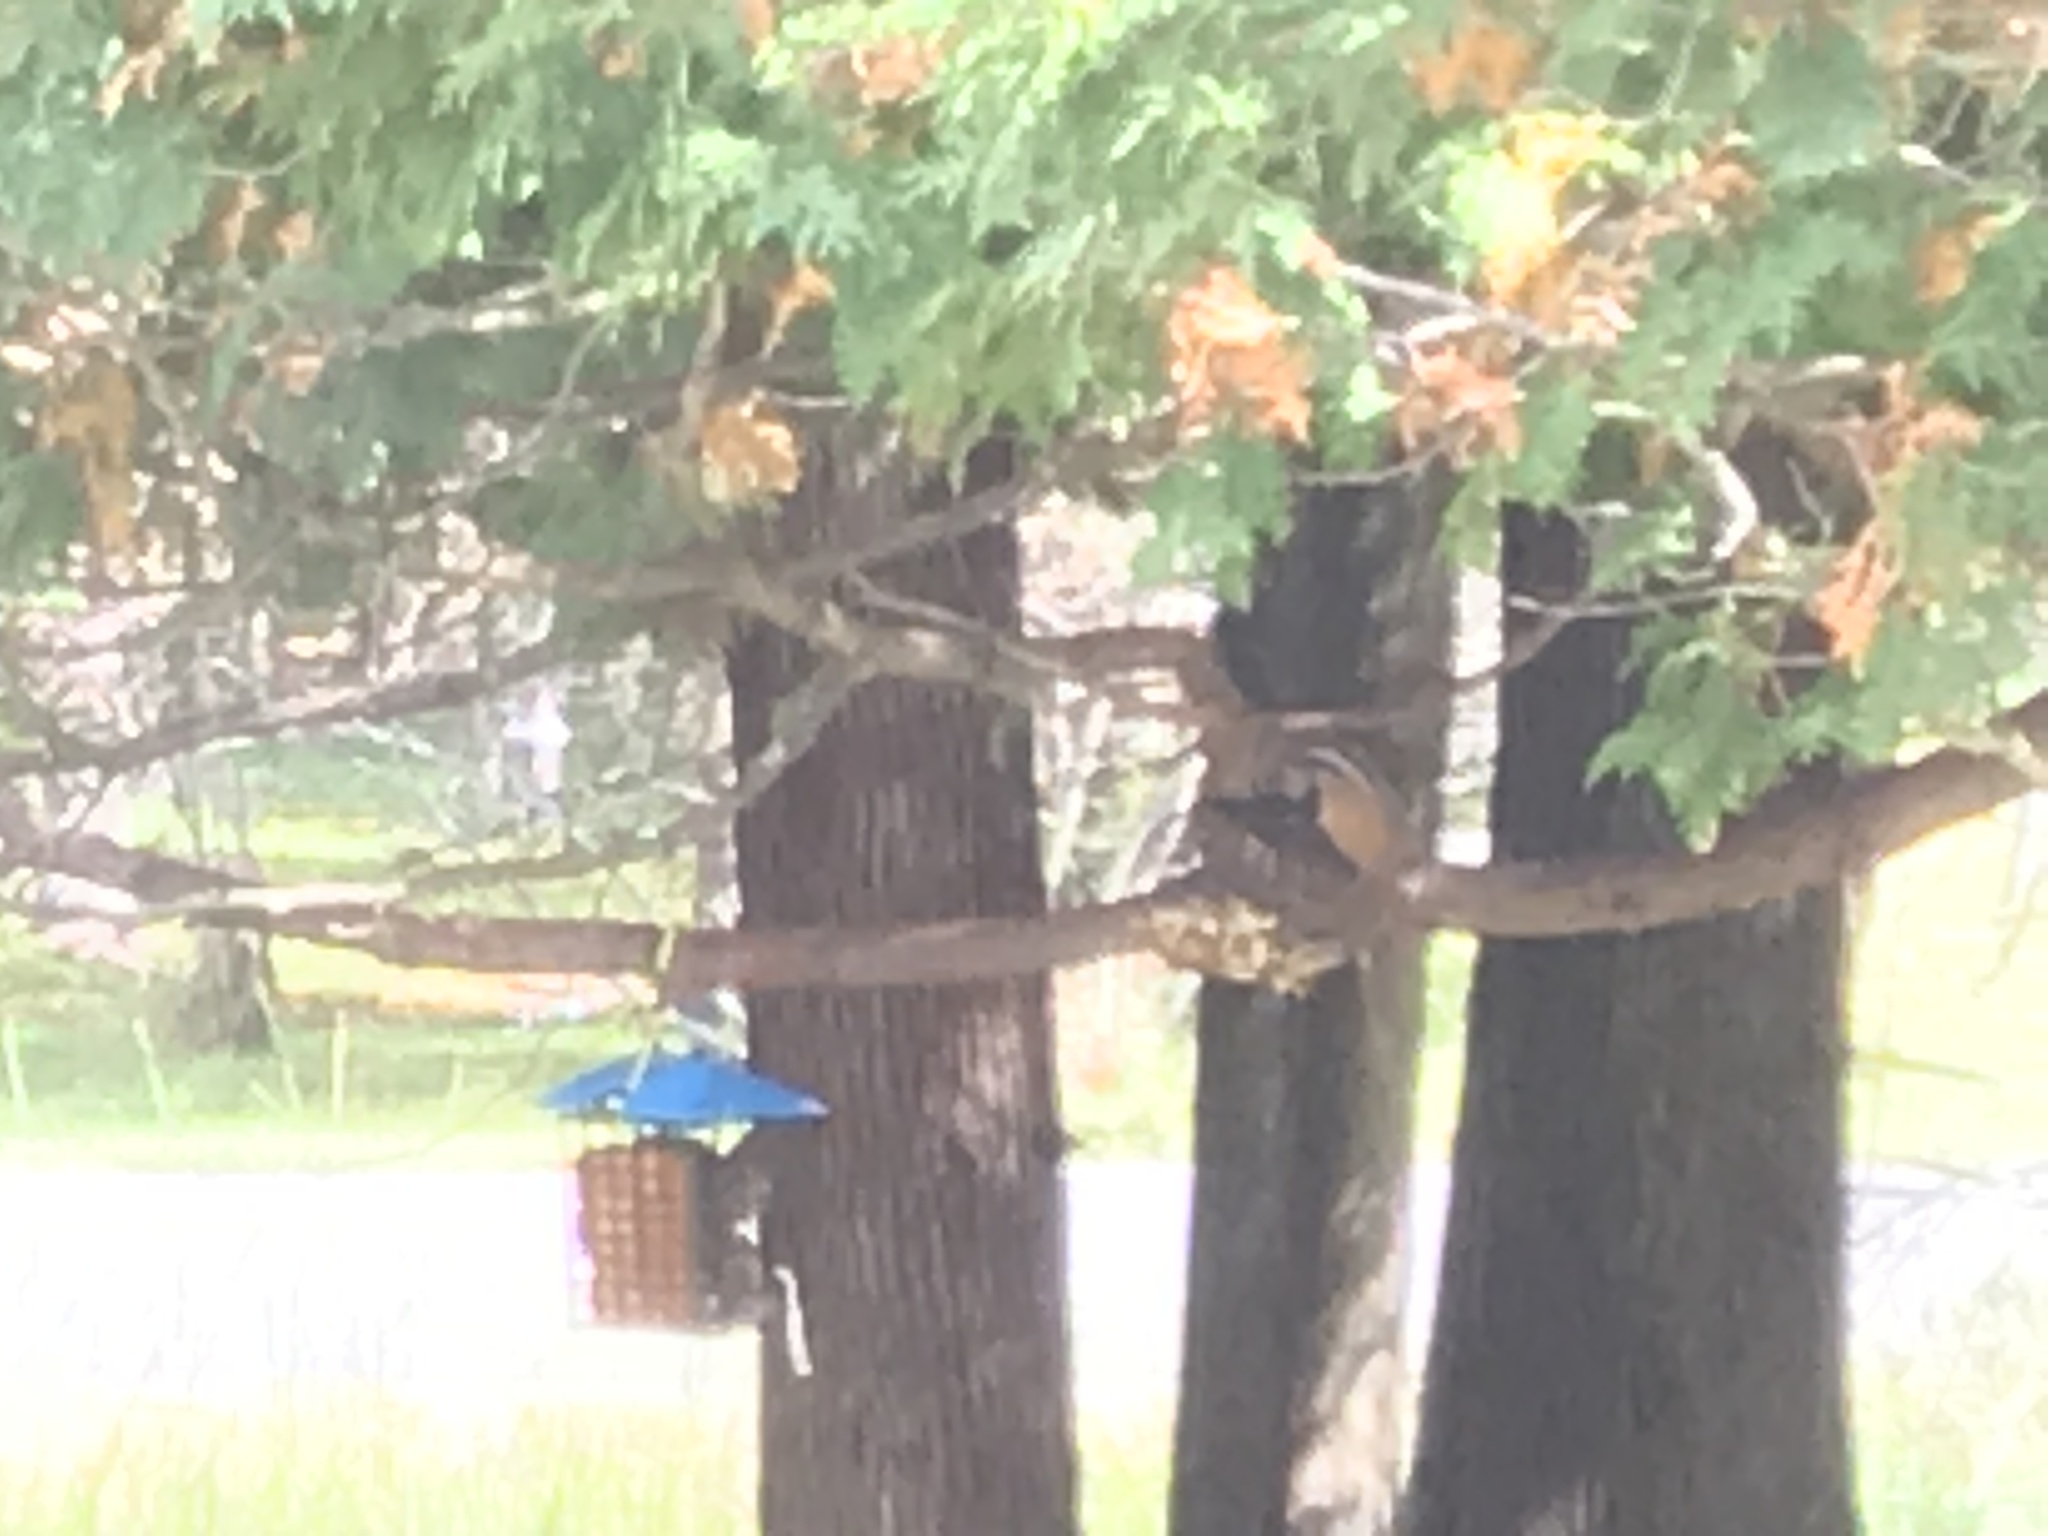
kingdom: Animalia
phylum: Chordata
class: Mammalia
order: Rodentia
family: Sciuridae
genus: Tamias
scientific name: Tamias striatus
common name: Eastern chipmunk
